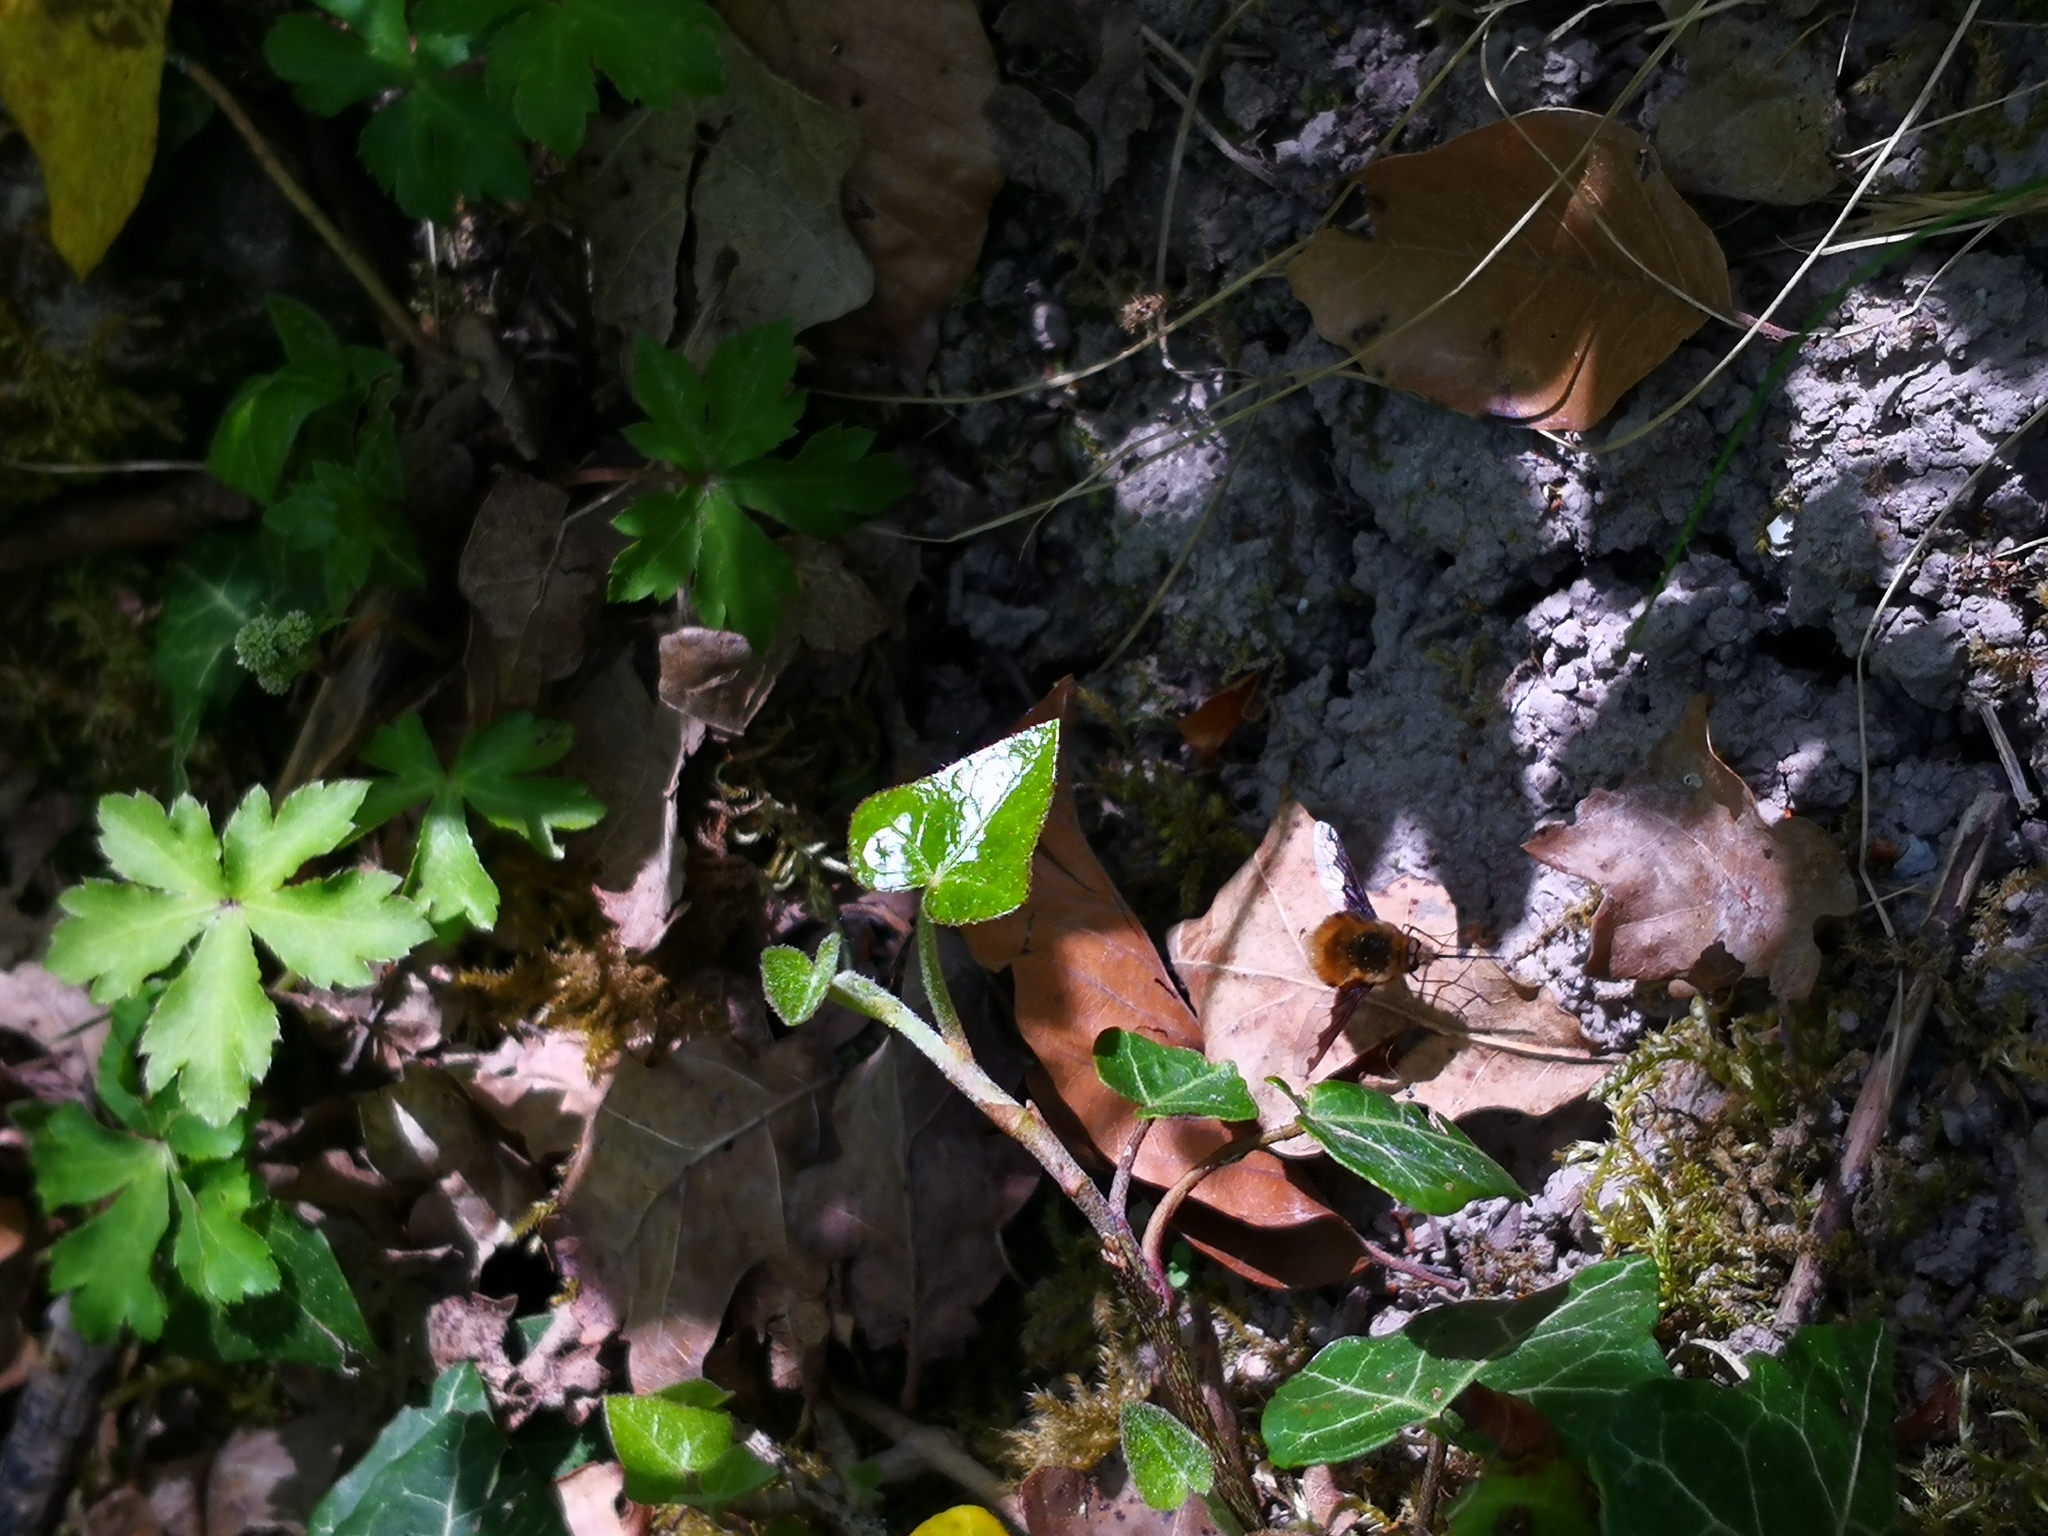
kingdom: Animalia
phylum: Arthropoda
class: Insecta
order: Diptera
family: Bombyliidae
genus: Bombylius
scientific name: Bombylius major
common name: Bee fly
